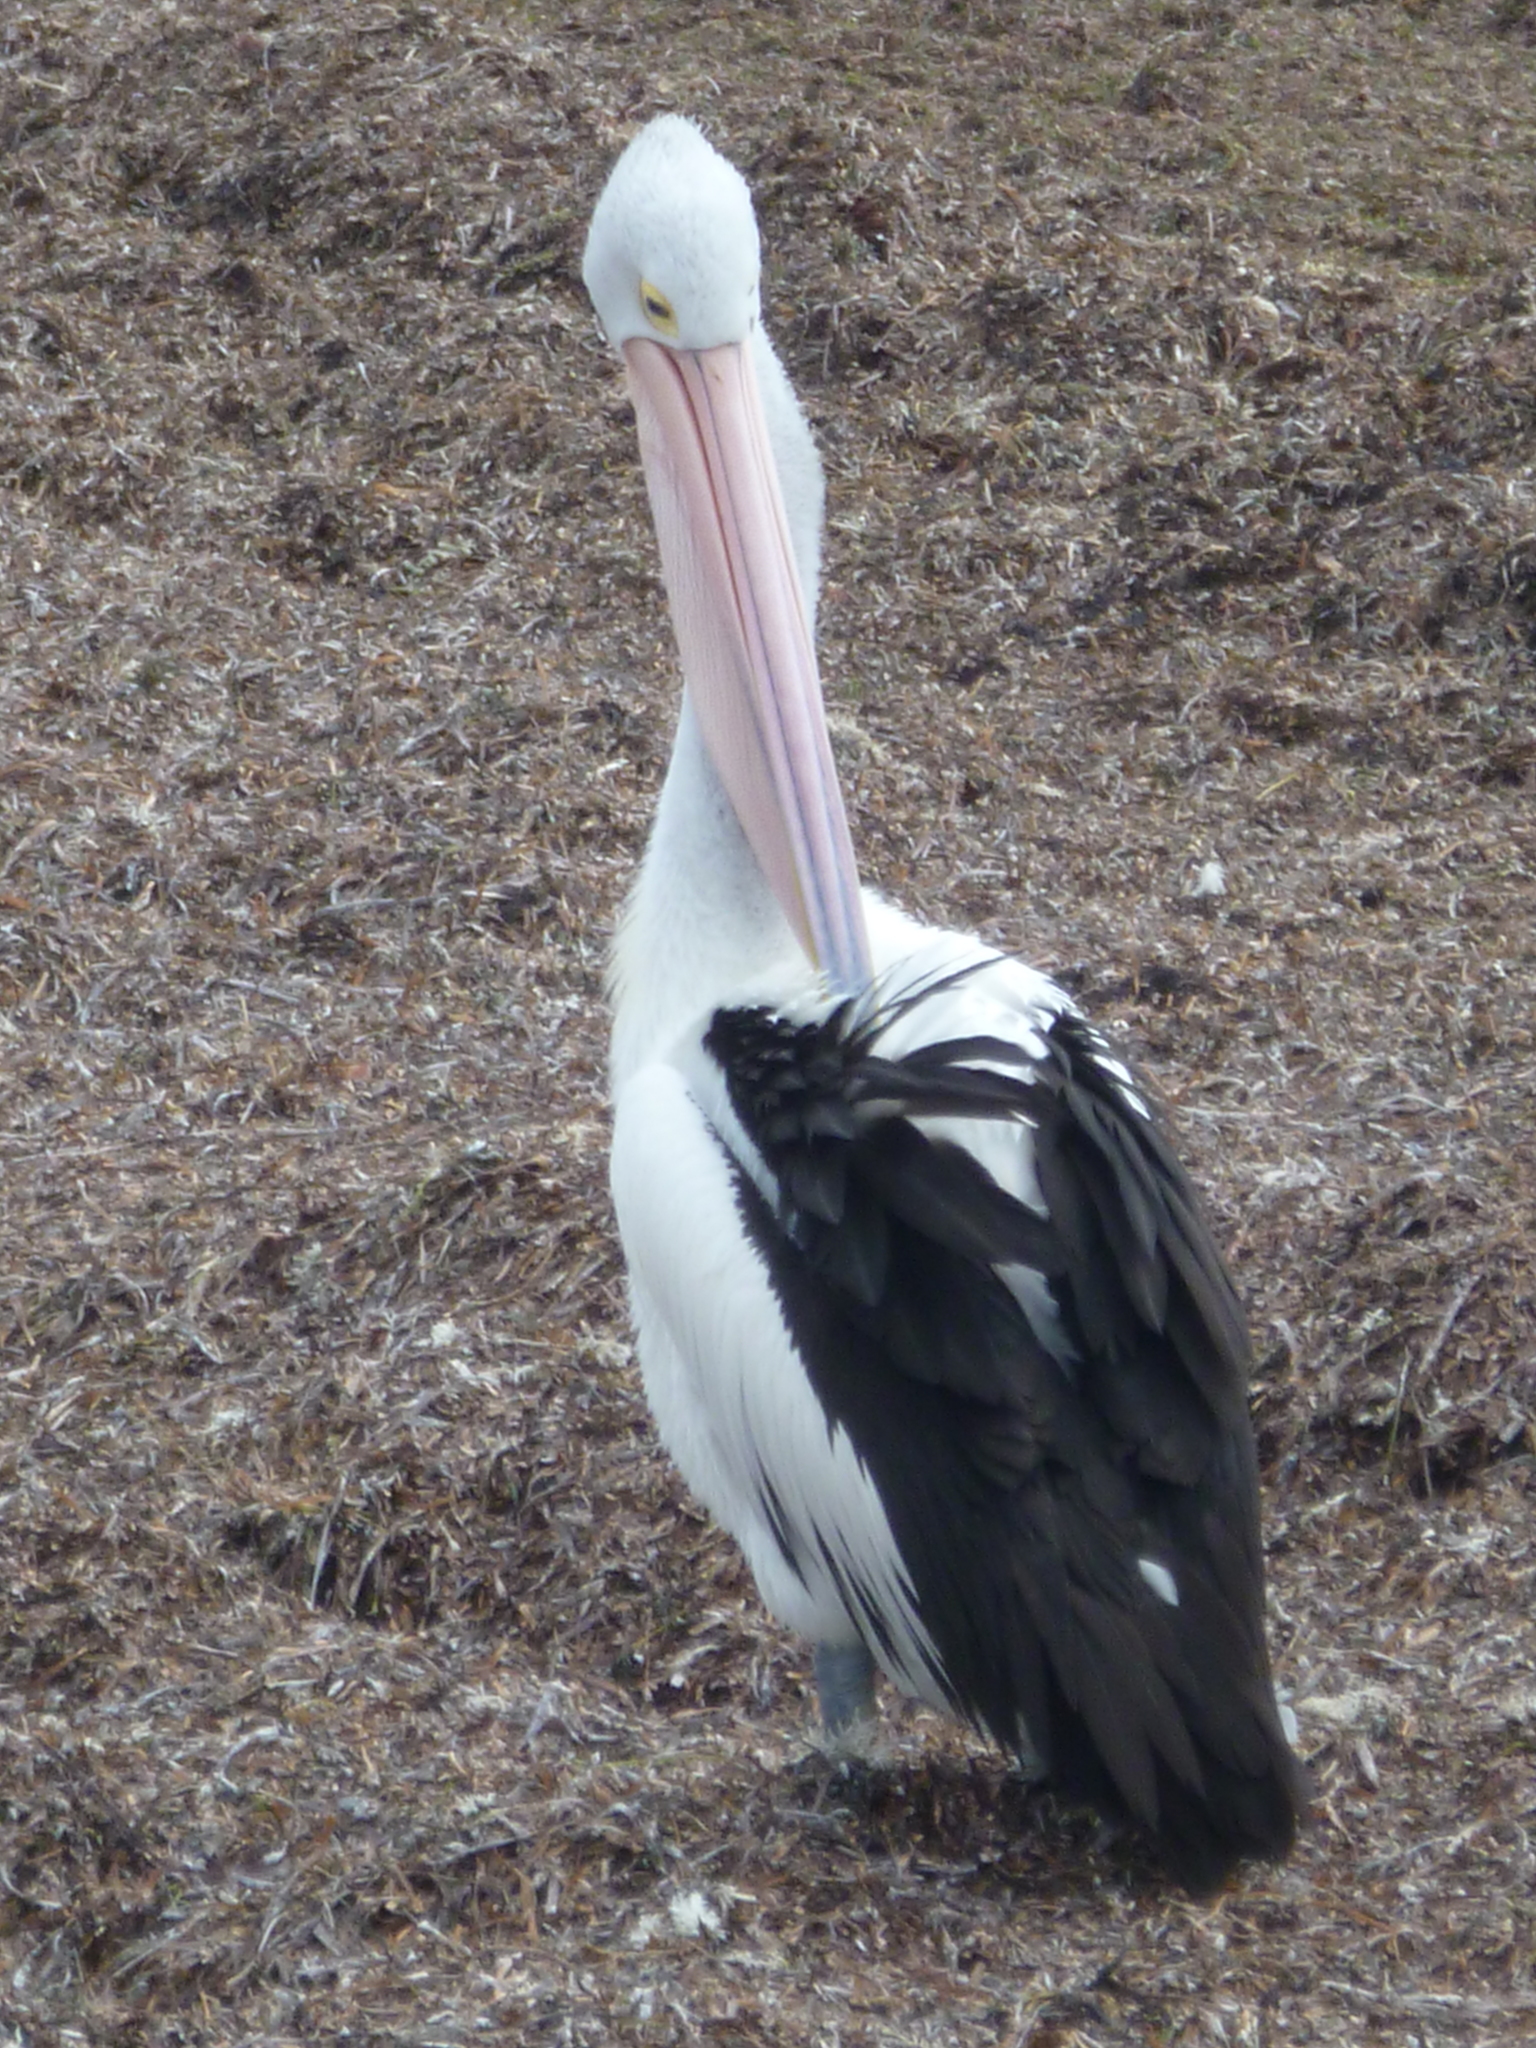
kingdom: Animalia
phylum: Chordata
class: Aves
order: Pelecaniformes
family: Pelecanidae
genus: Pelecanus
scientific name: Pelecanus conspicillatus
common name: Australian pelican
